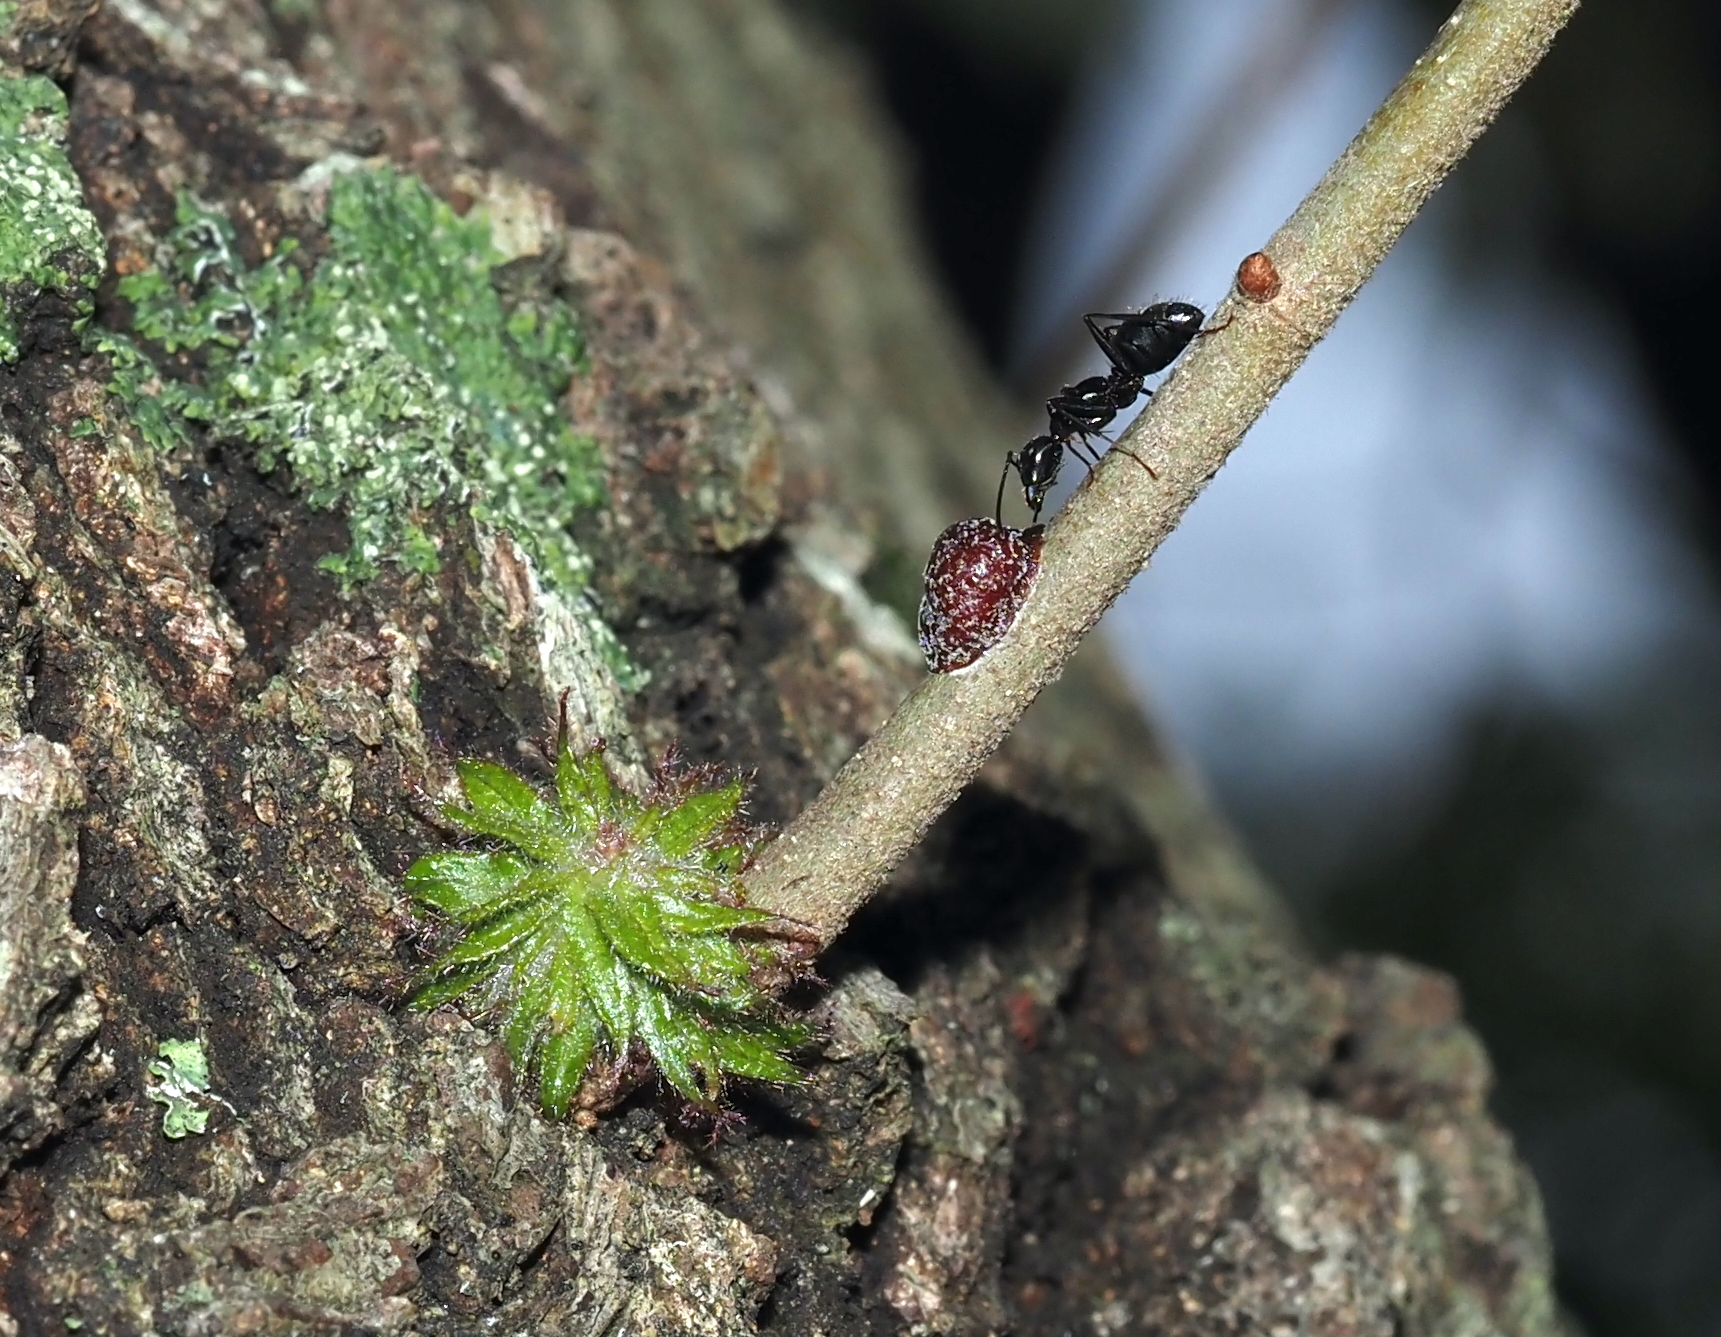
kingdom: Animalia
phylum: Arthropoda
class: Insecta
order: Hymenoptera
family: Cynipidae
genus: Dryocosmus
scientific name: Dryocosmus
